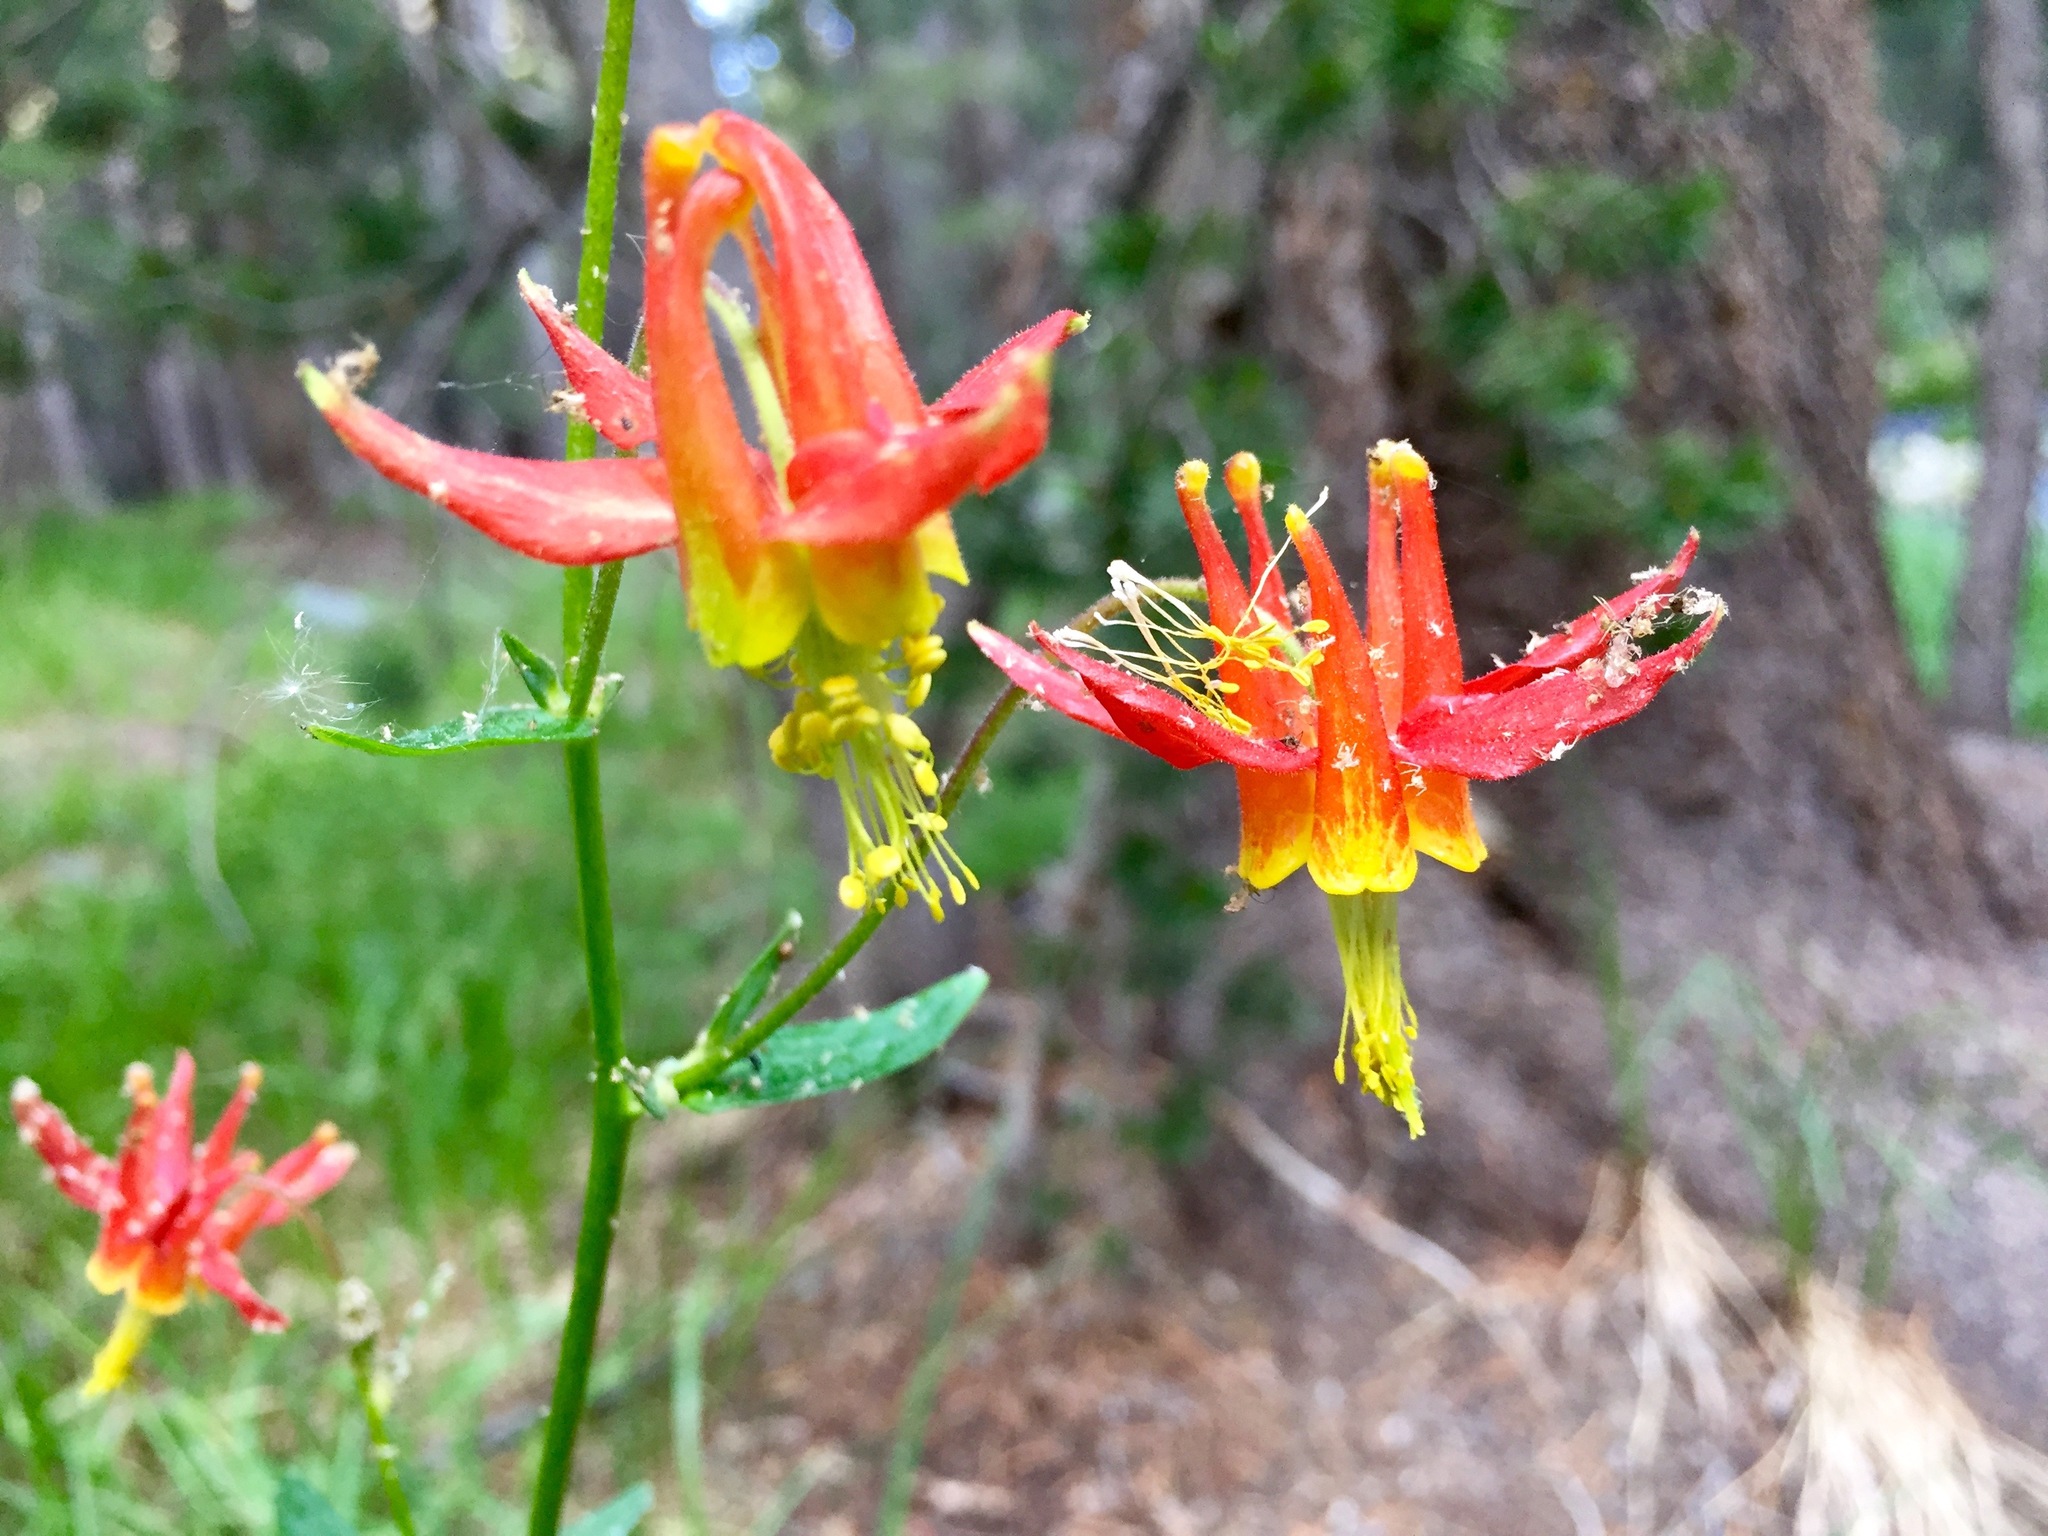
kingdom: Plantae
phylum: Tracheophyta
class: Magnoliopsida
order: Ranunculales
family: Ranunculaceae
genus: Aquilegia
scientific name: Aquilegia formosa
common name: Sitka columbine
